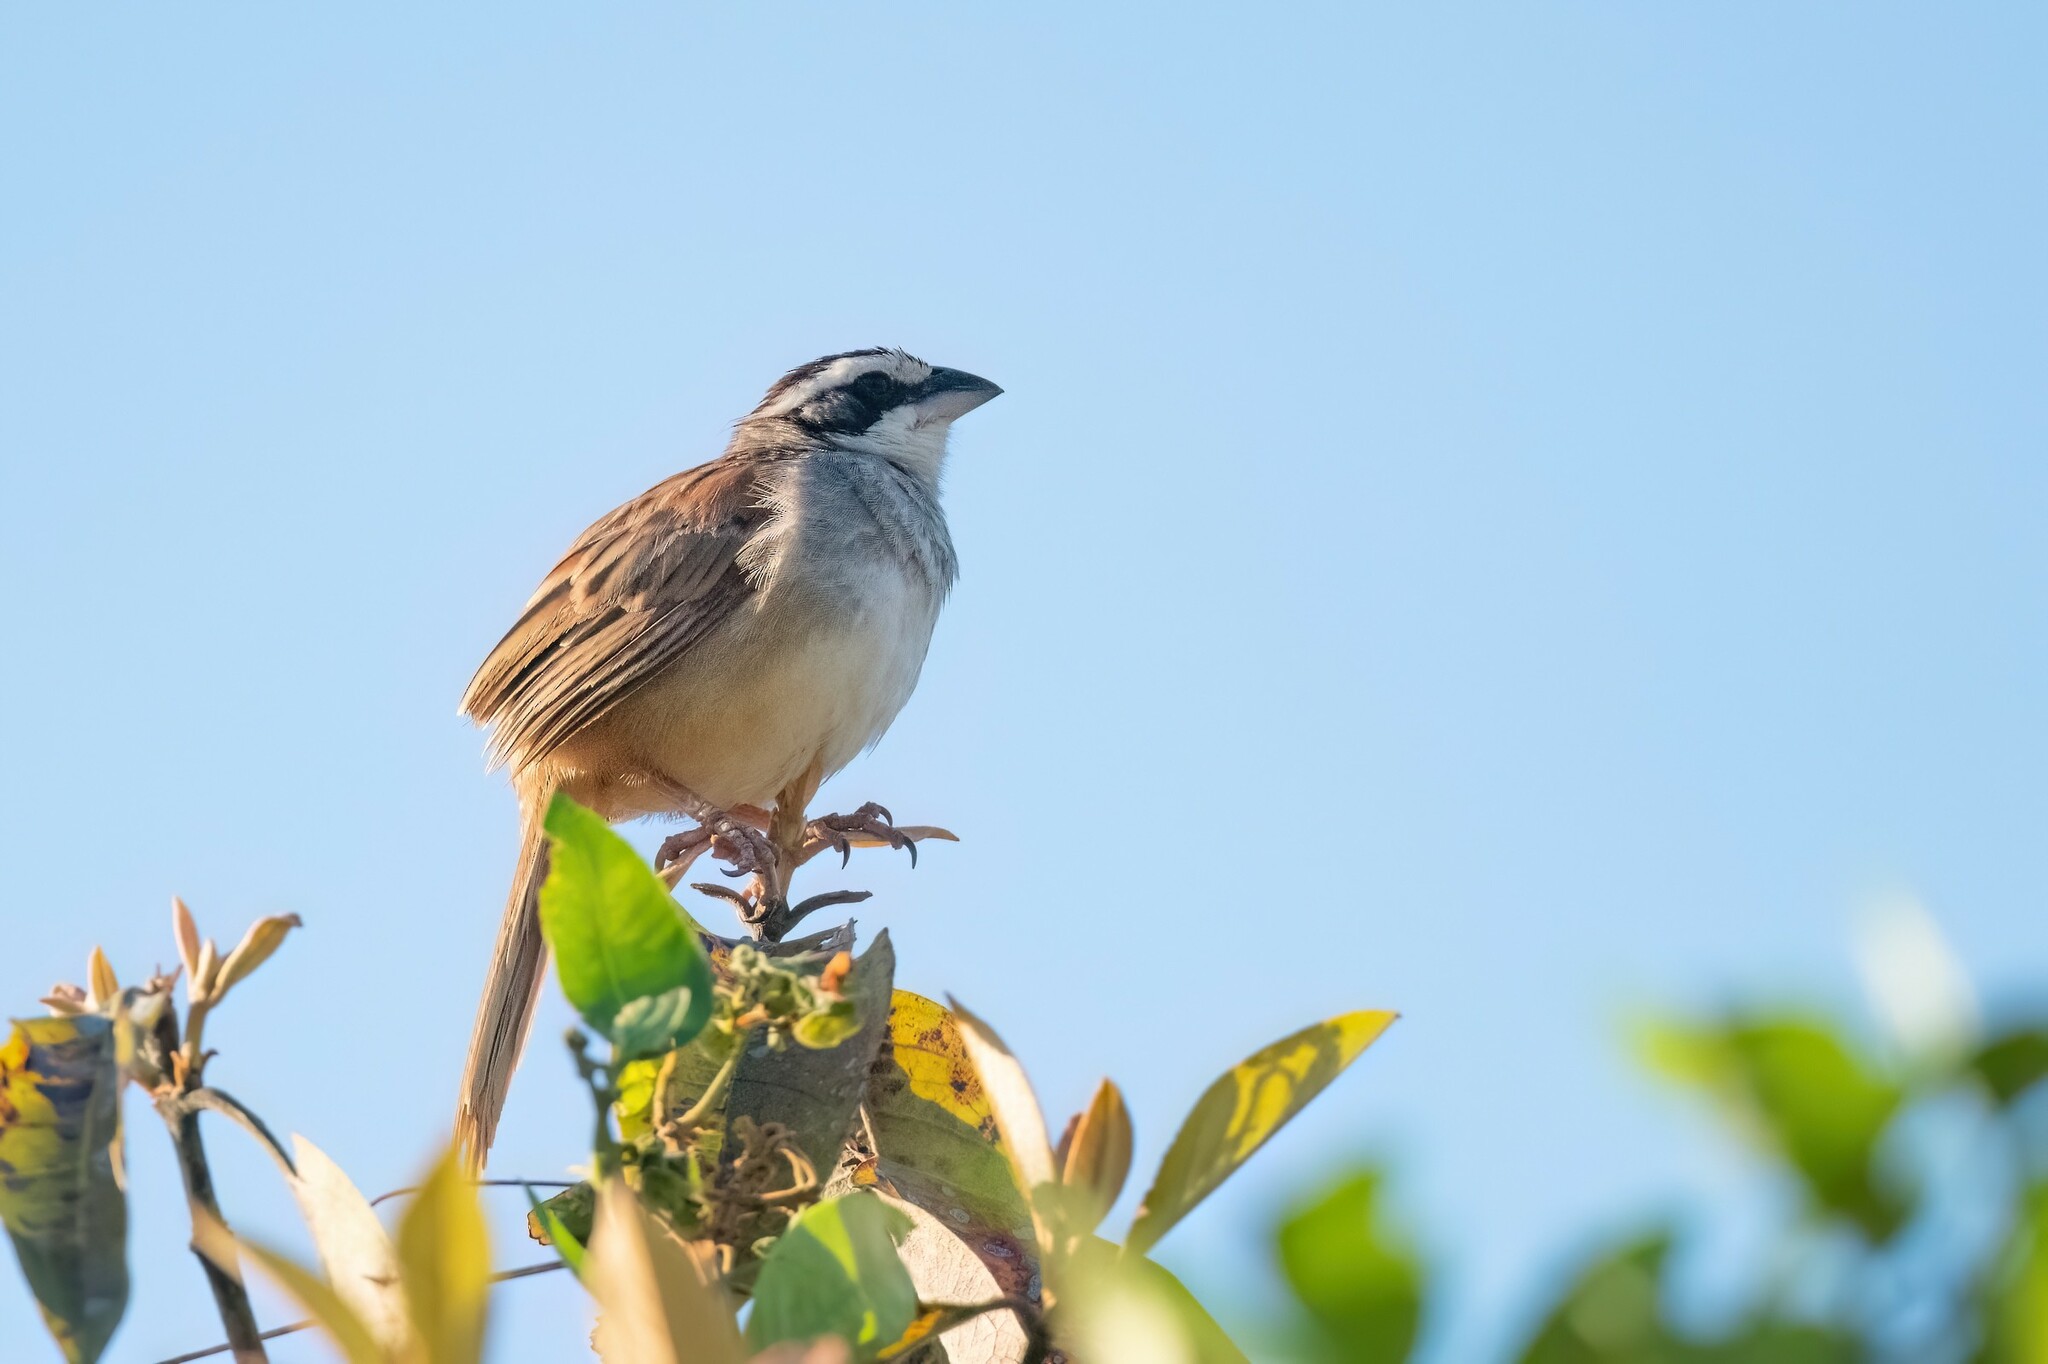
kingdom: Animalia
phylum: Chordata
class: Aves
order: Passeriformes
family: Passerellidae
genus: Peucaea
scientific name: Peucaea ruficauda
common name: Stripe-headed sparrow
